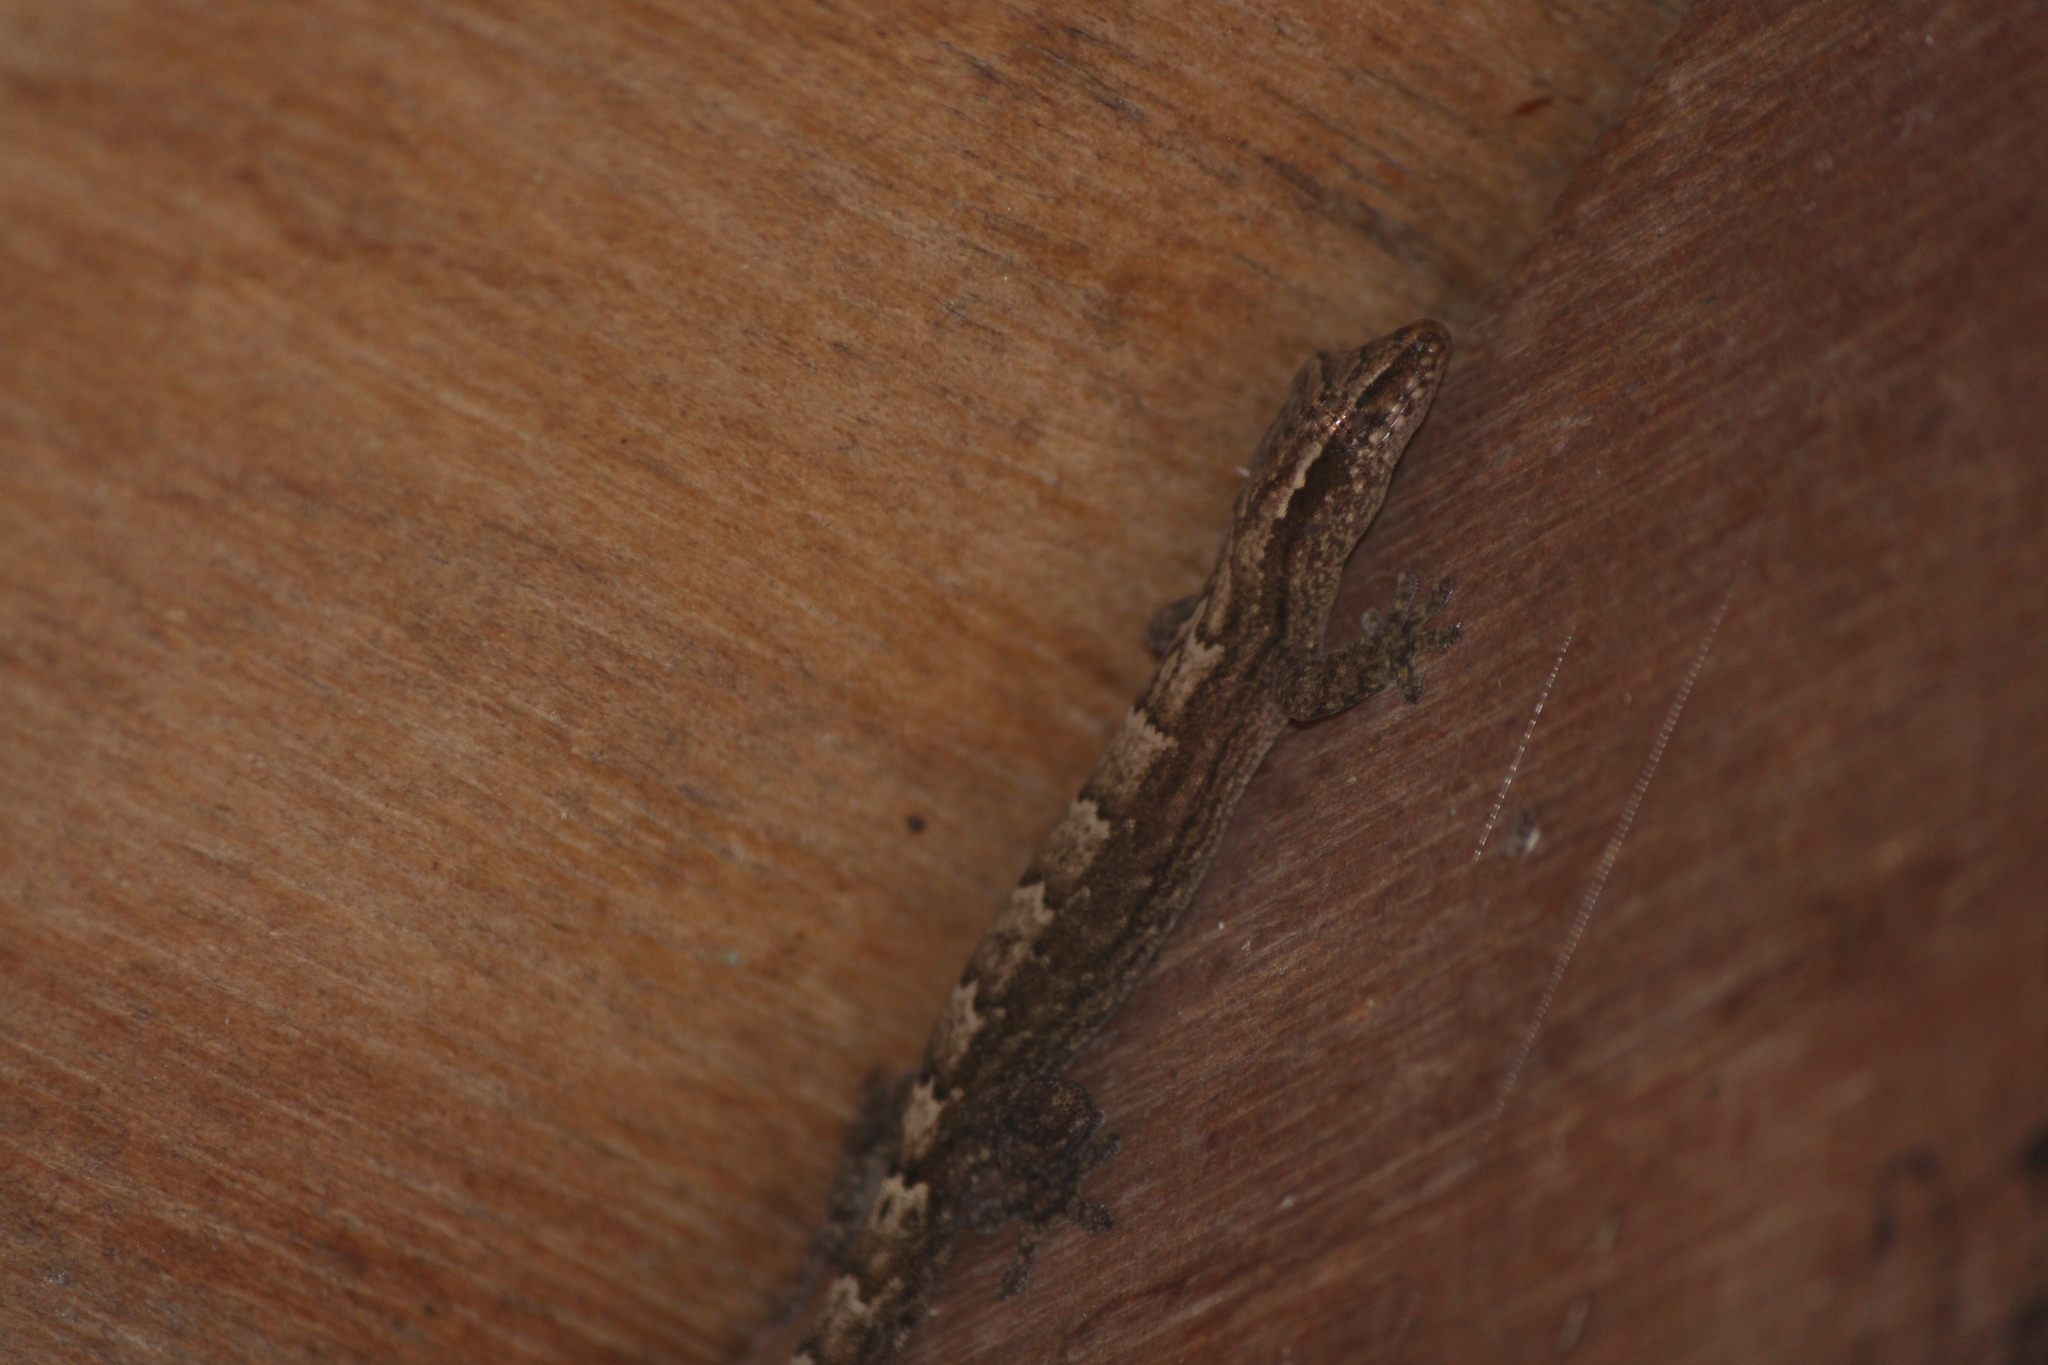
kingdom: Animalia
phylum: Chordata
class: Squamata
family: Gekkonidae
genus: Lepidodactylus
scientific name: Lepidodactylus lugubris
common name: Mourning gecko
